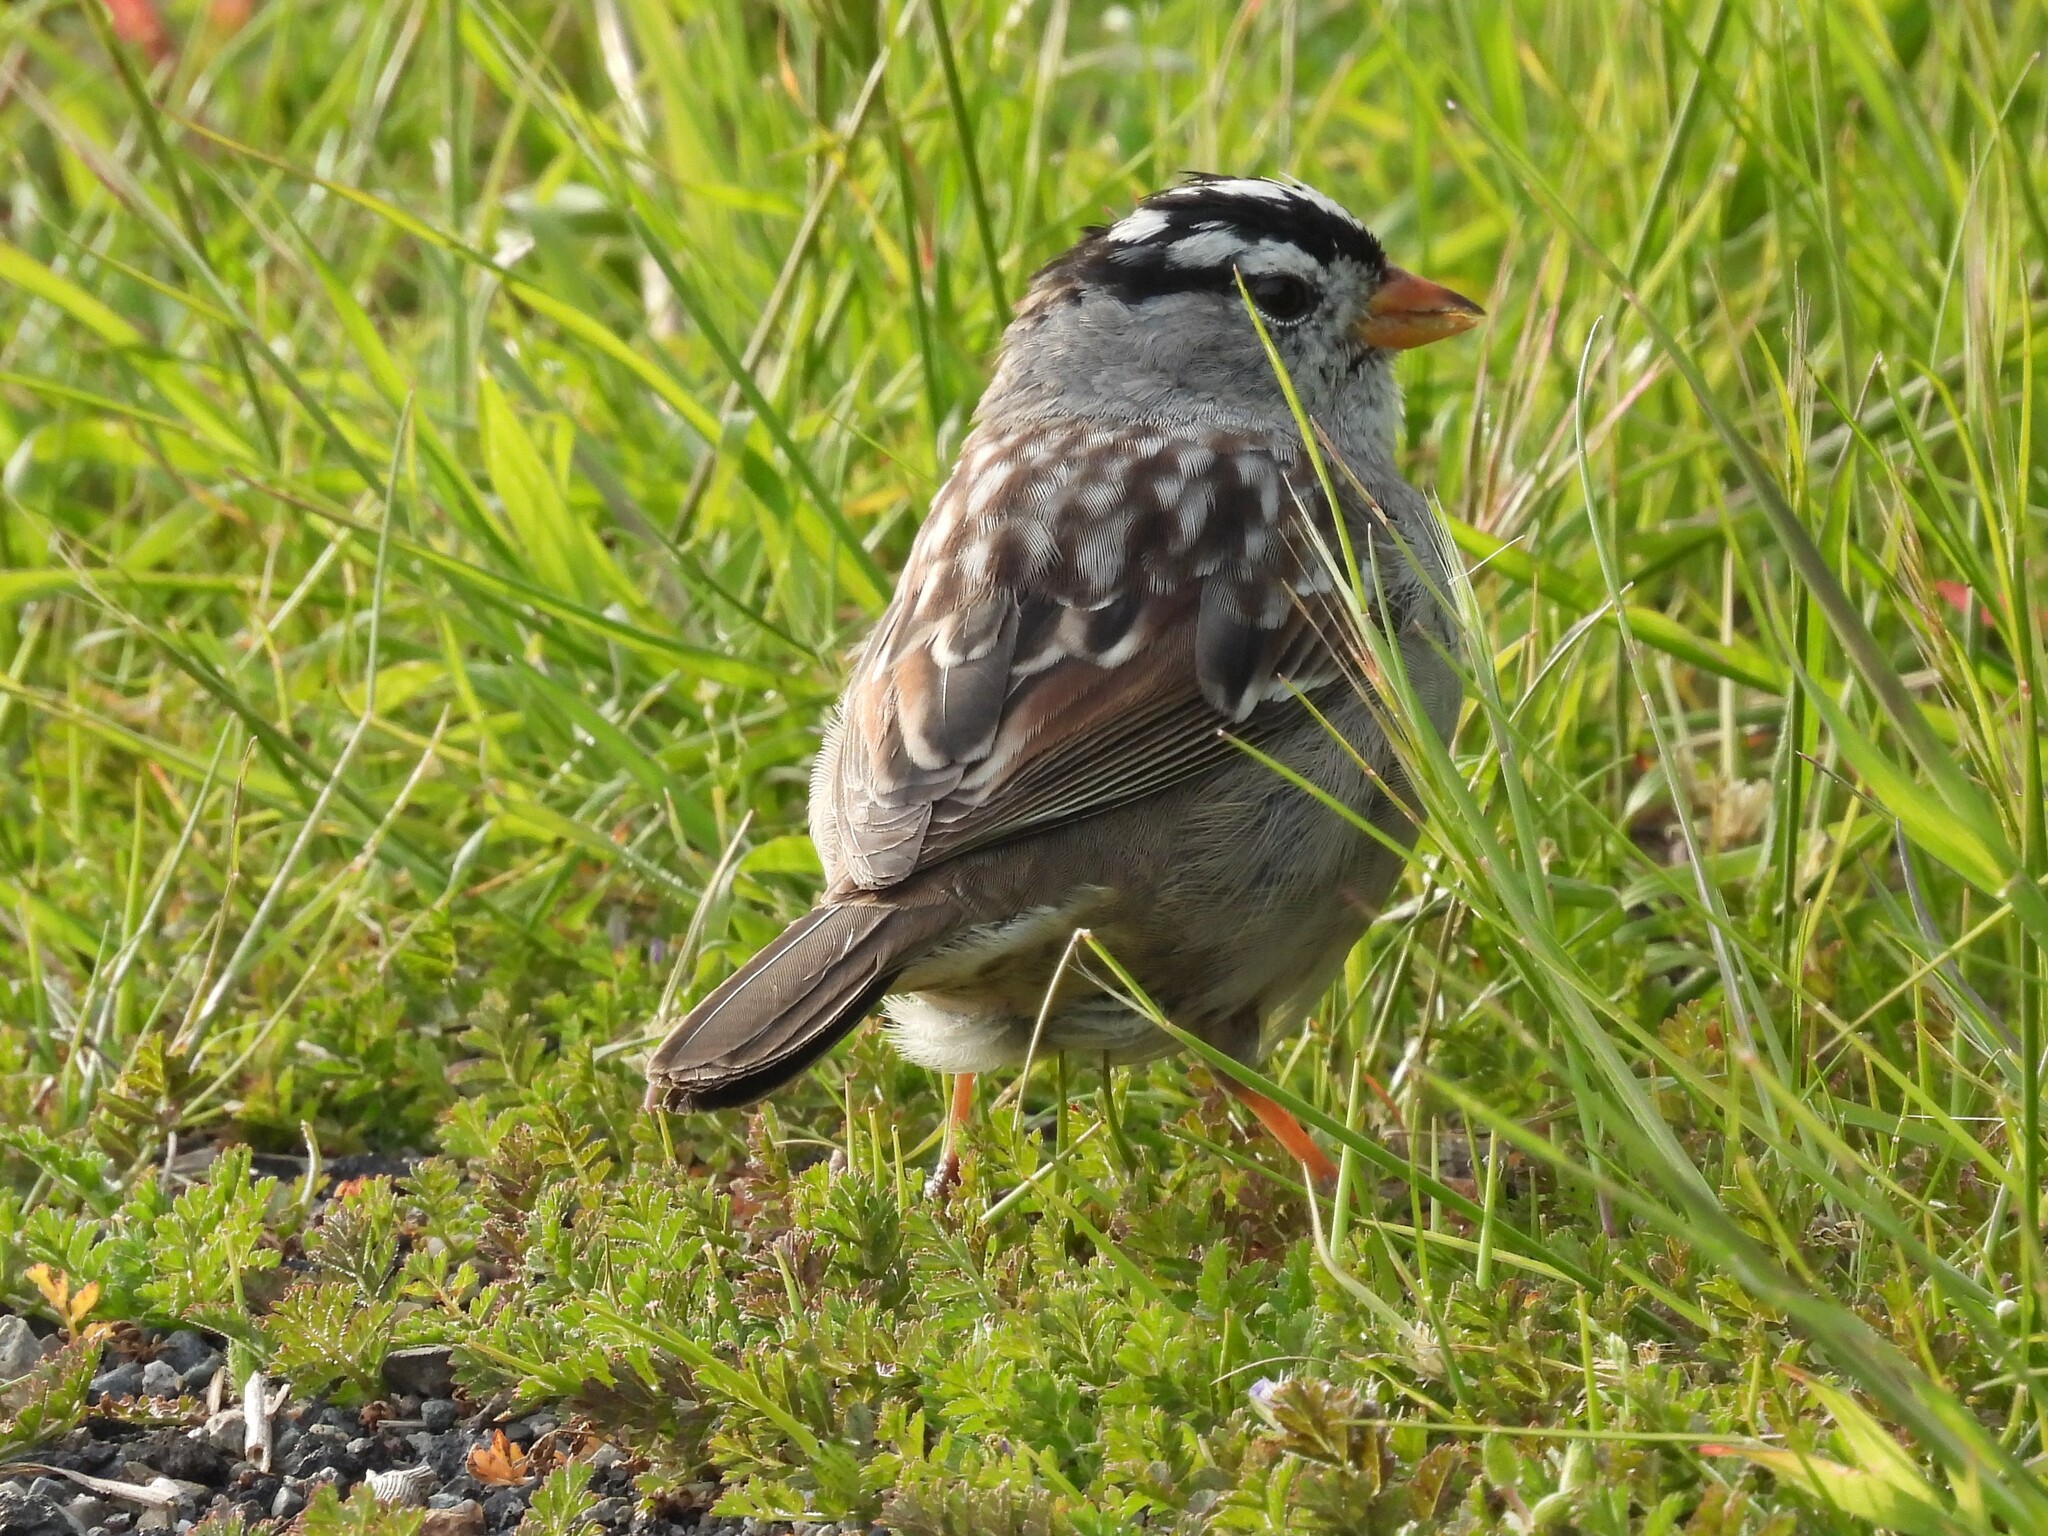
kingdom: Animalia
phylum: Chordata
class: Aves
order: Passeriformes
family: Passerellidae
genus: Zonotrichia
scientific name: Zonotrichia leucophrys
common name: White-crowned sparrow
